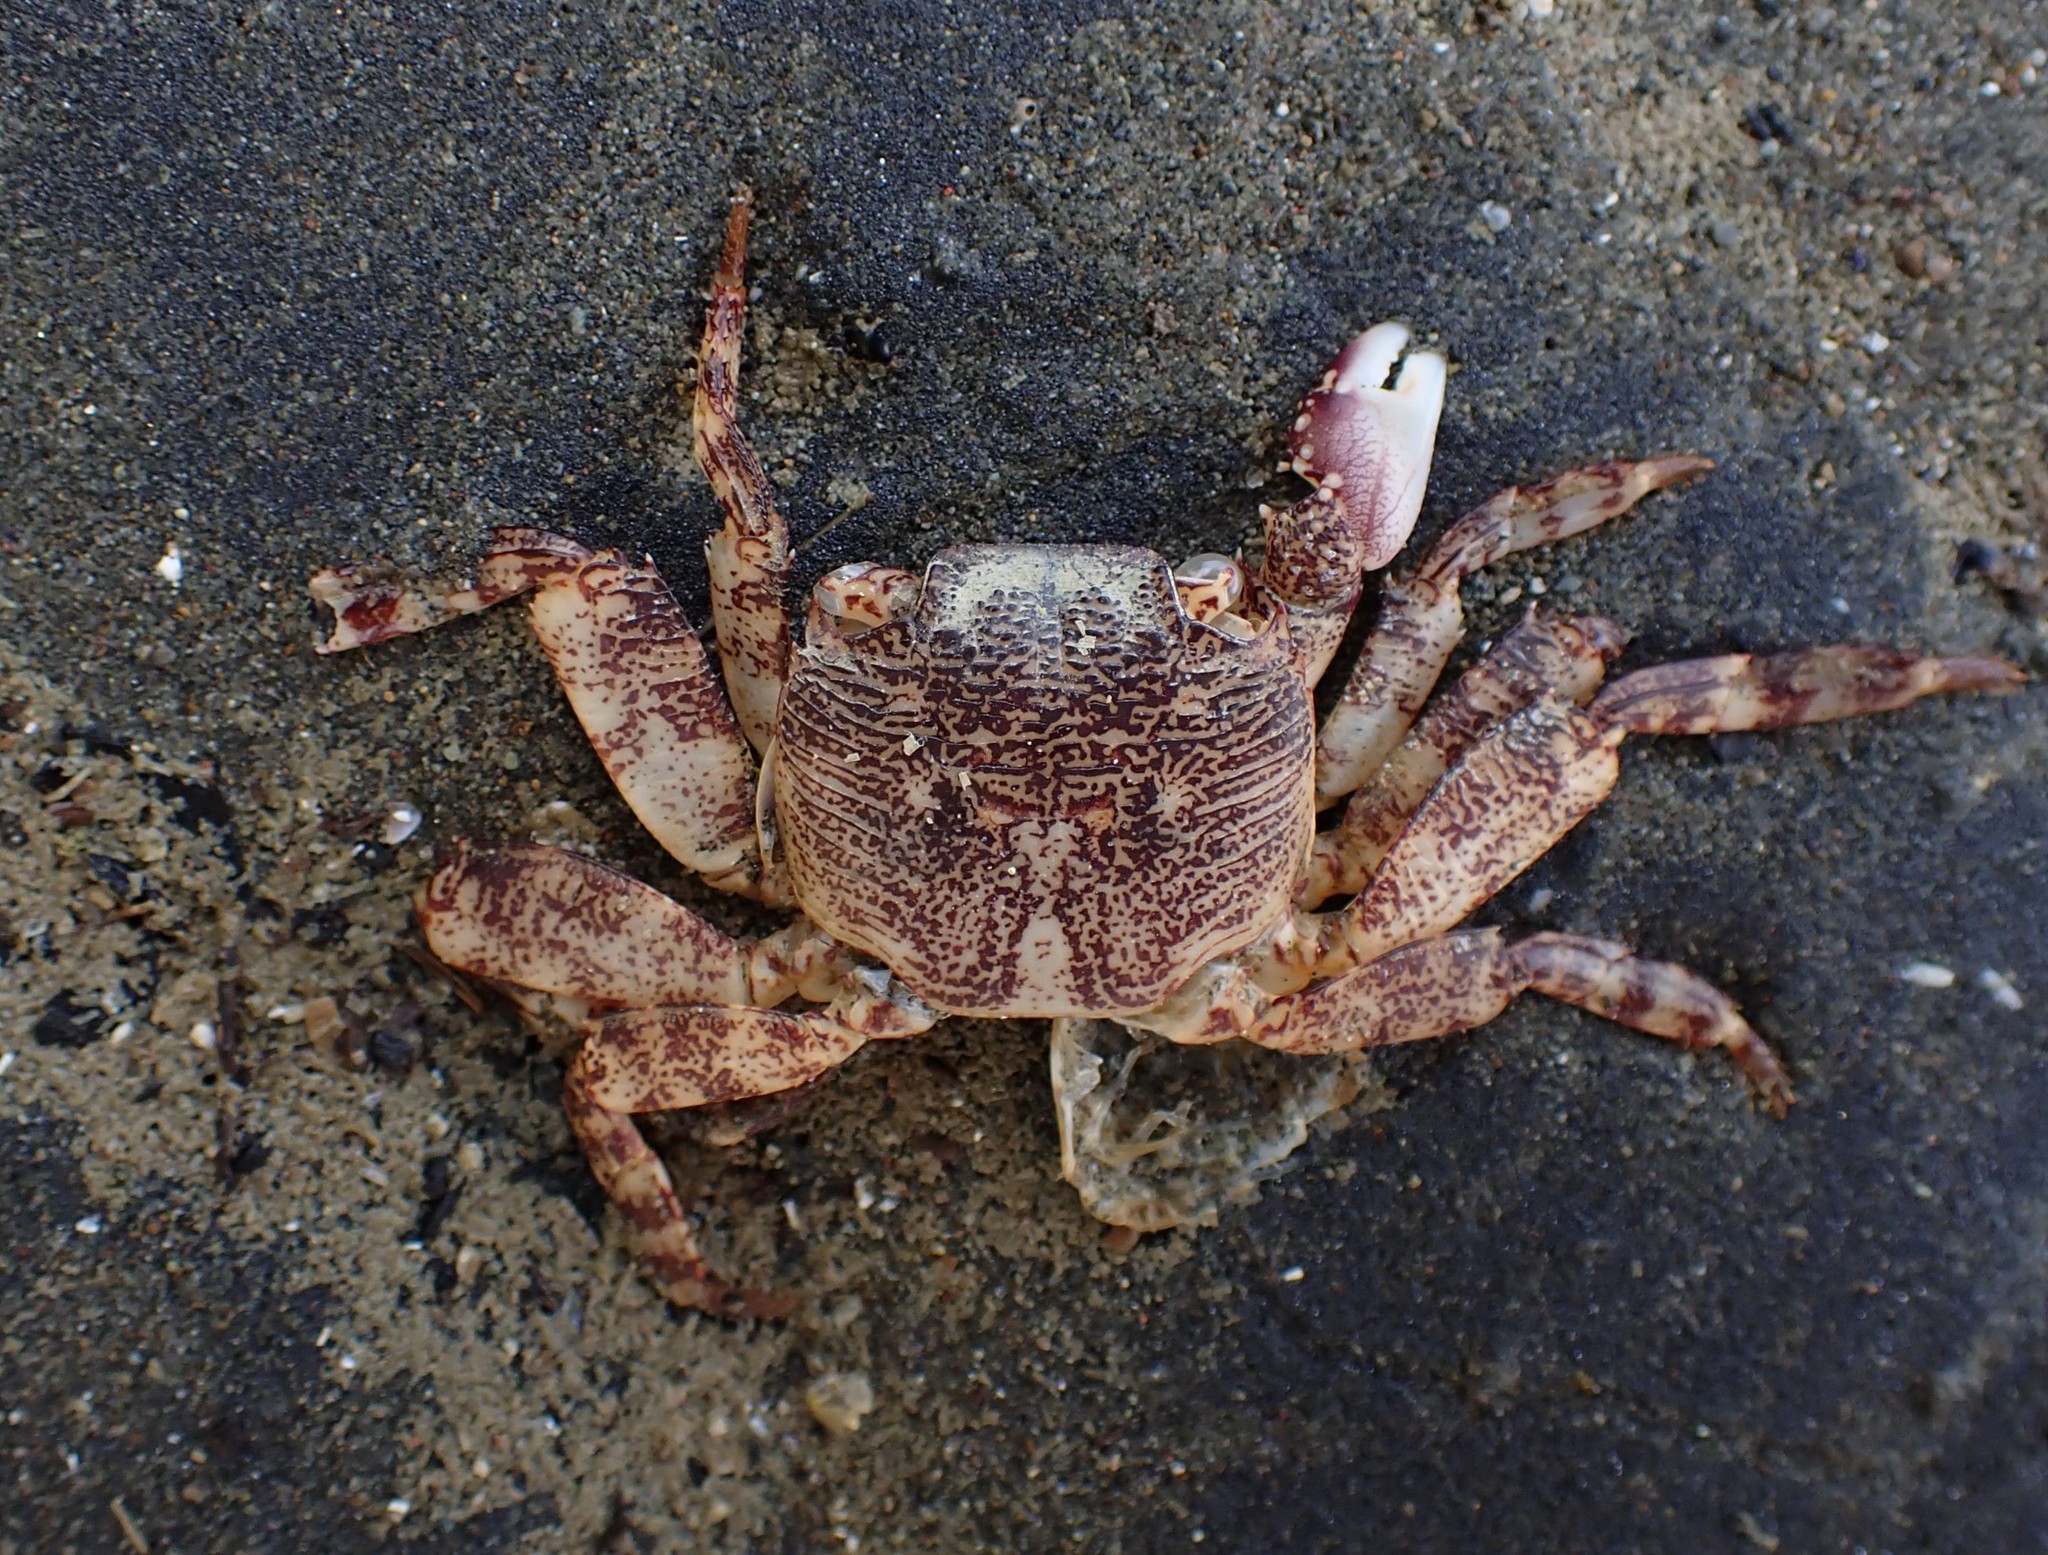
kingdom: Animalia
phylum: Arthropoda
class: Malacostraca
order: Decapoda
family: Grapsidae
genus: Leptograpsus
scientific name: Leptograpsus variegatus
